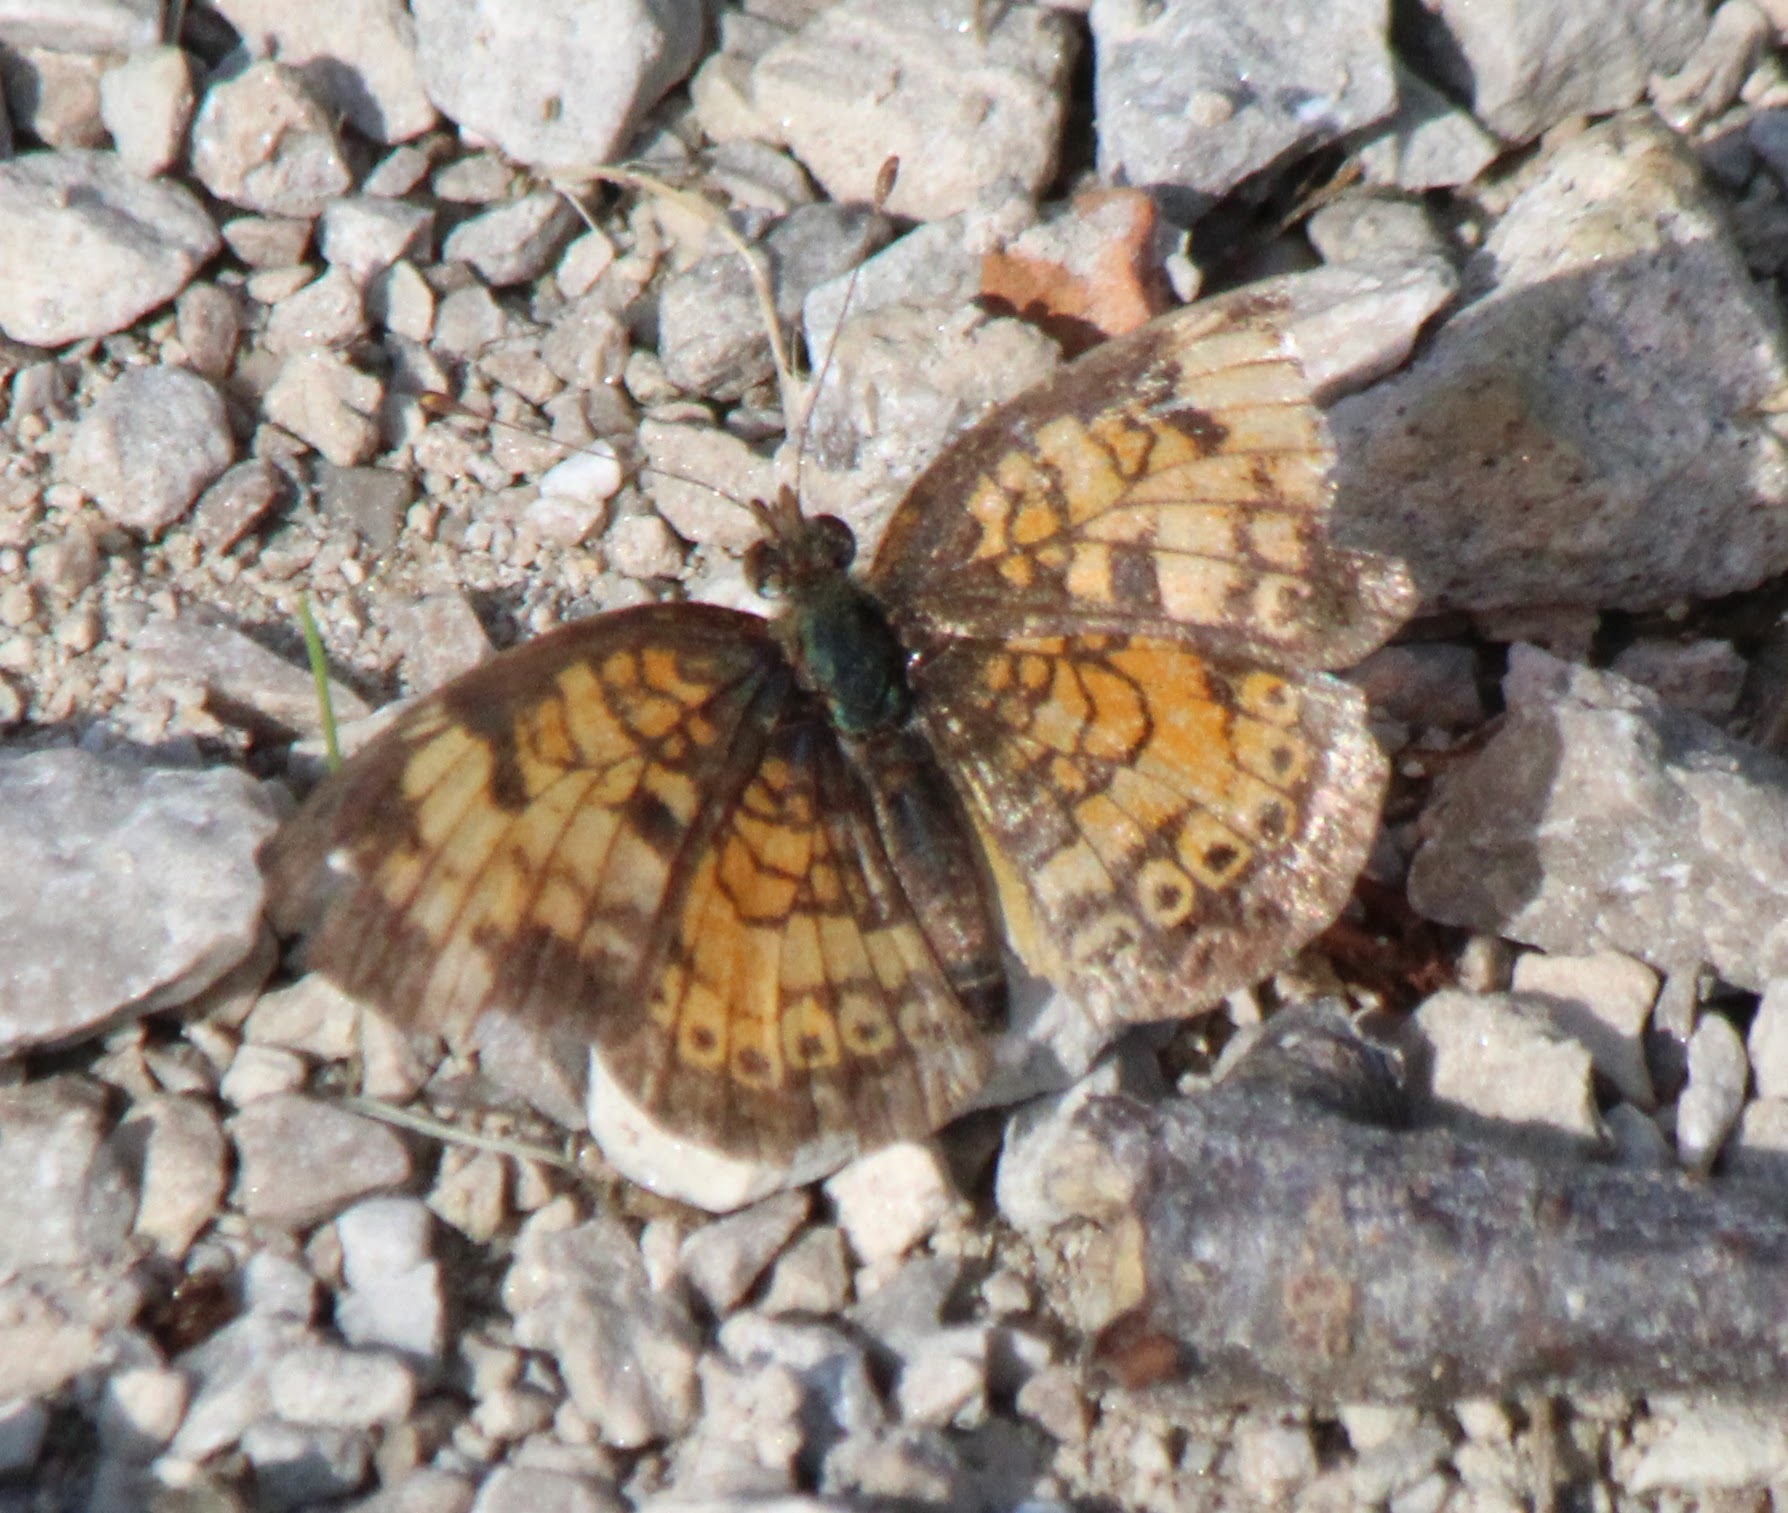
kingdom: Animalia
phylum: Arthropoda
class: Insecta
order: Lepidoptera
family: Nymphalidae
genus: Phyciodes
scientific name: Phyciodes tharos
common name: Pearl crescent
